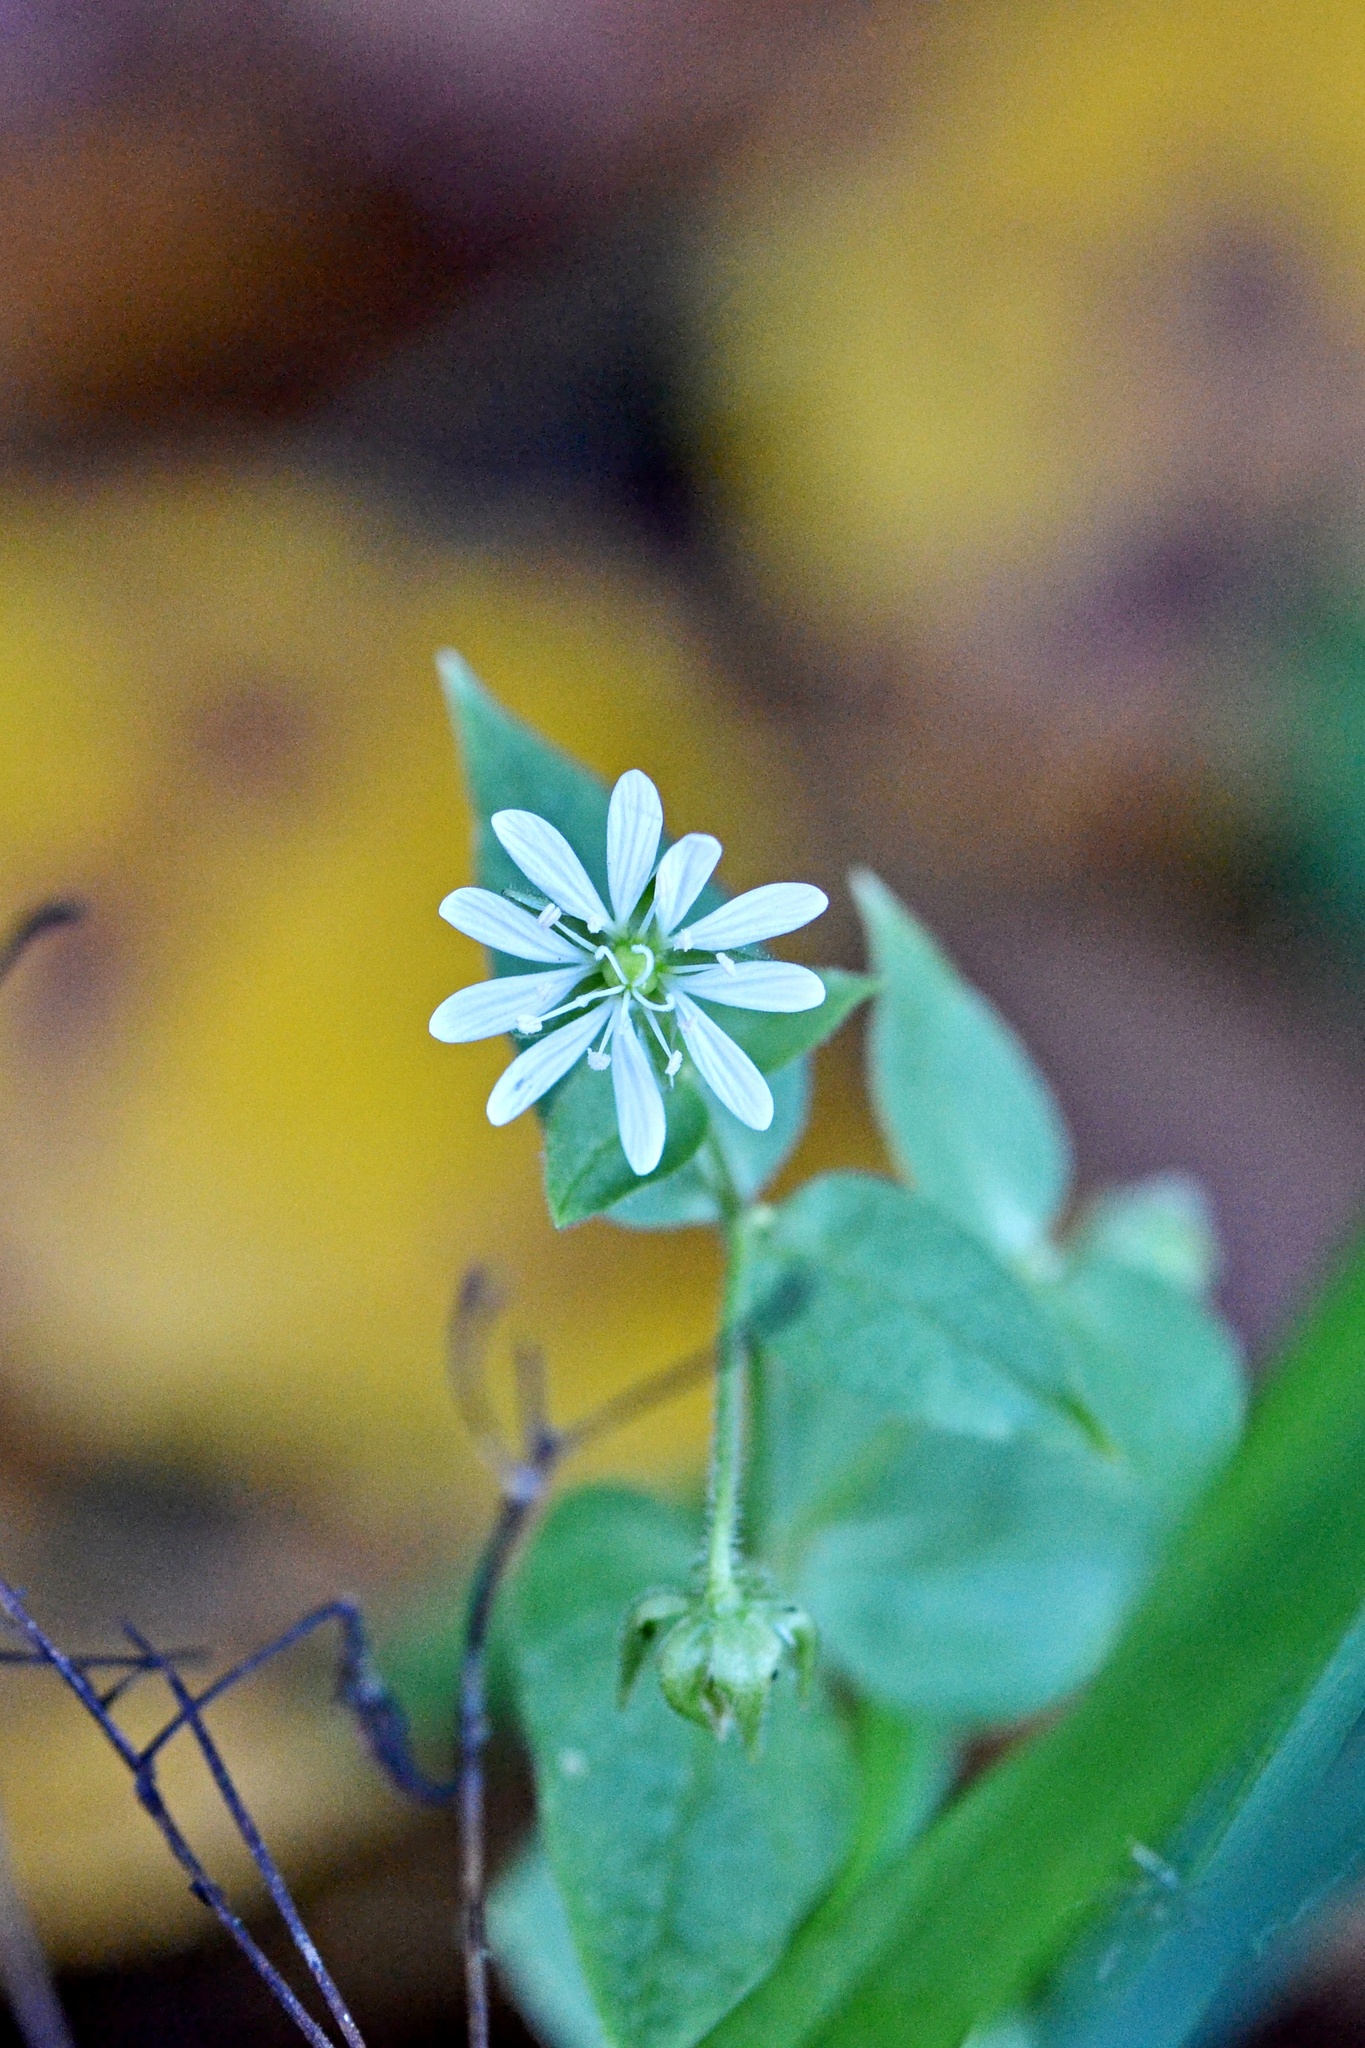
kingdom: Plantae
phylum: Tracheophyta
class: Magnoliopsida
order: Caryophyllales
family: Caryophyllaceae
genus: Stellaria
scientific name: Stellaria aquatica
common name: Water chickweed
